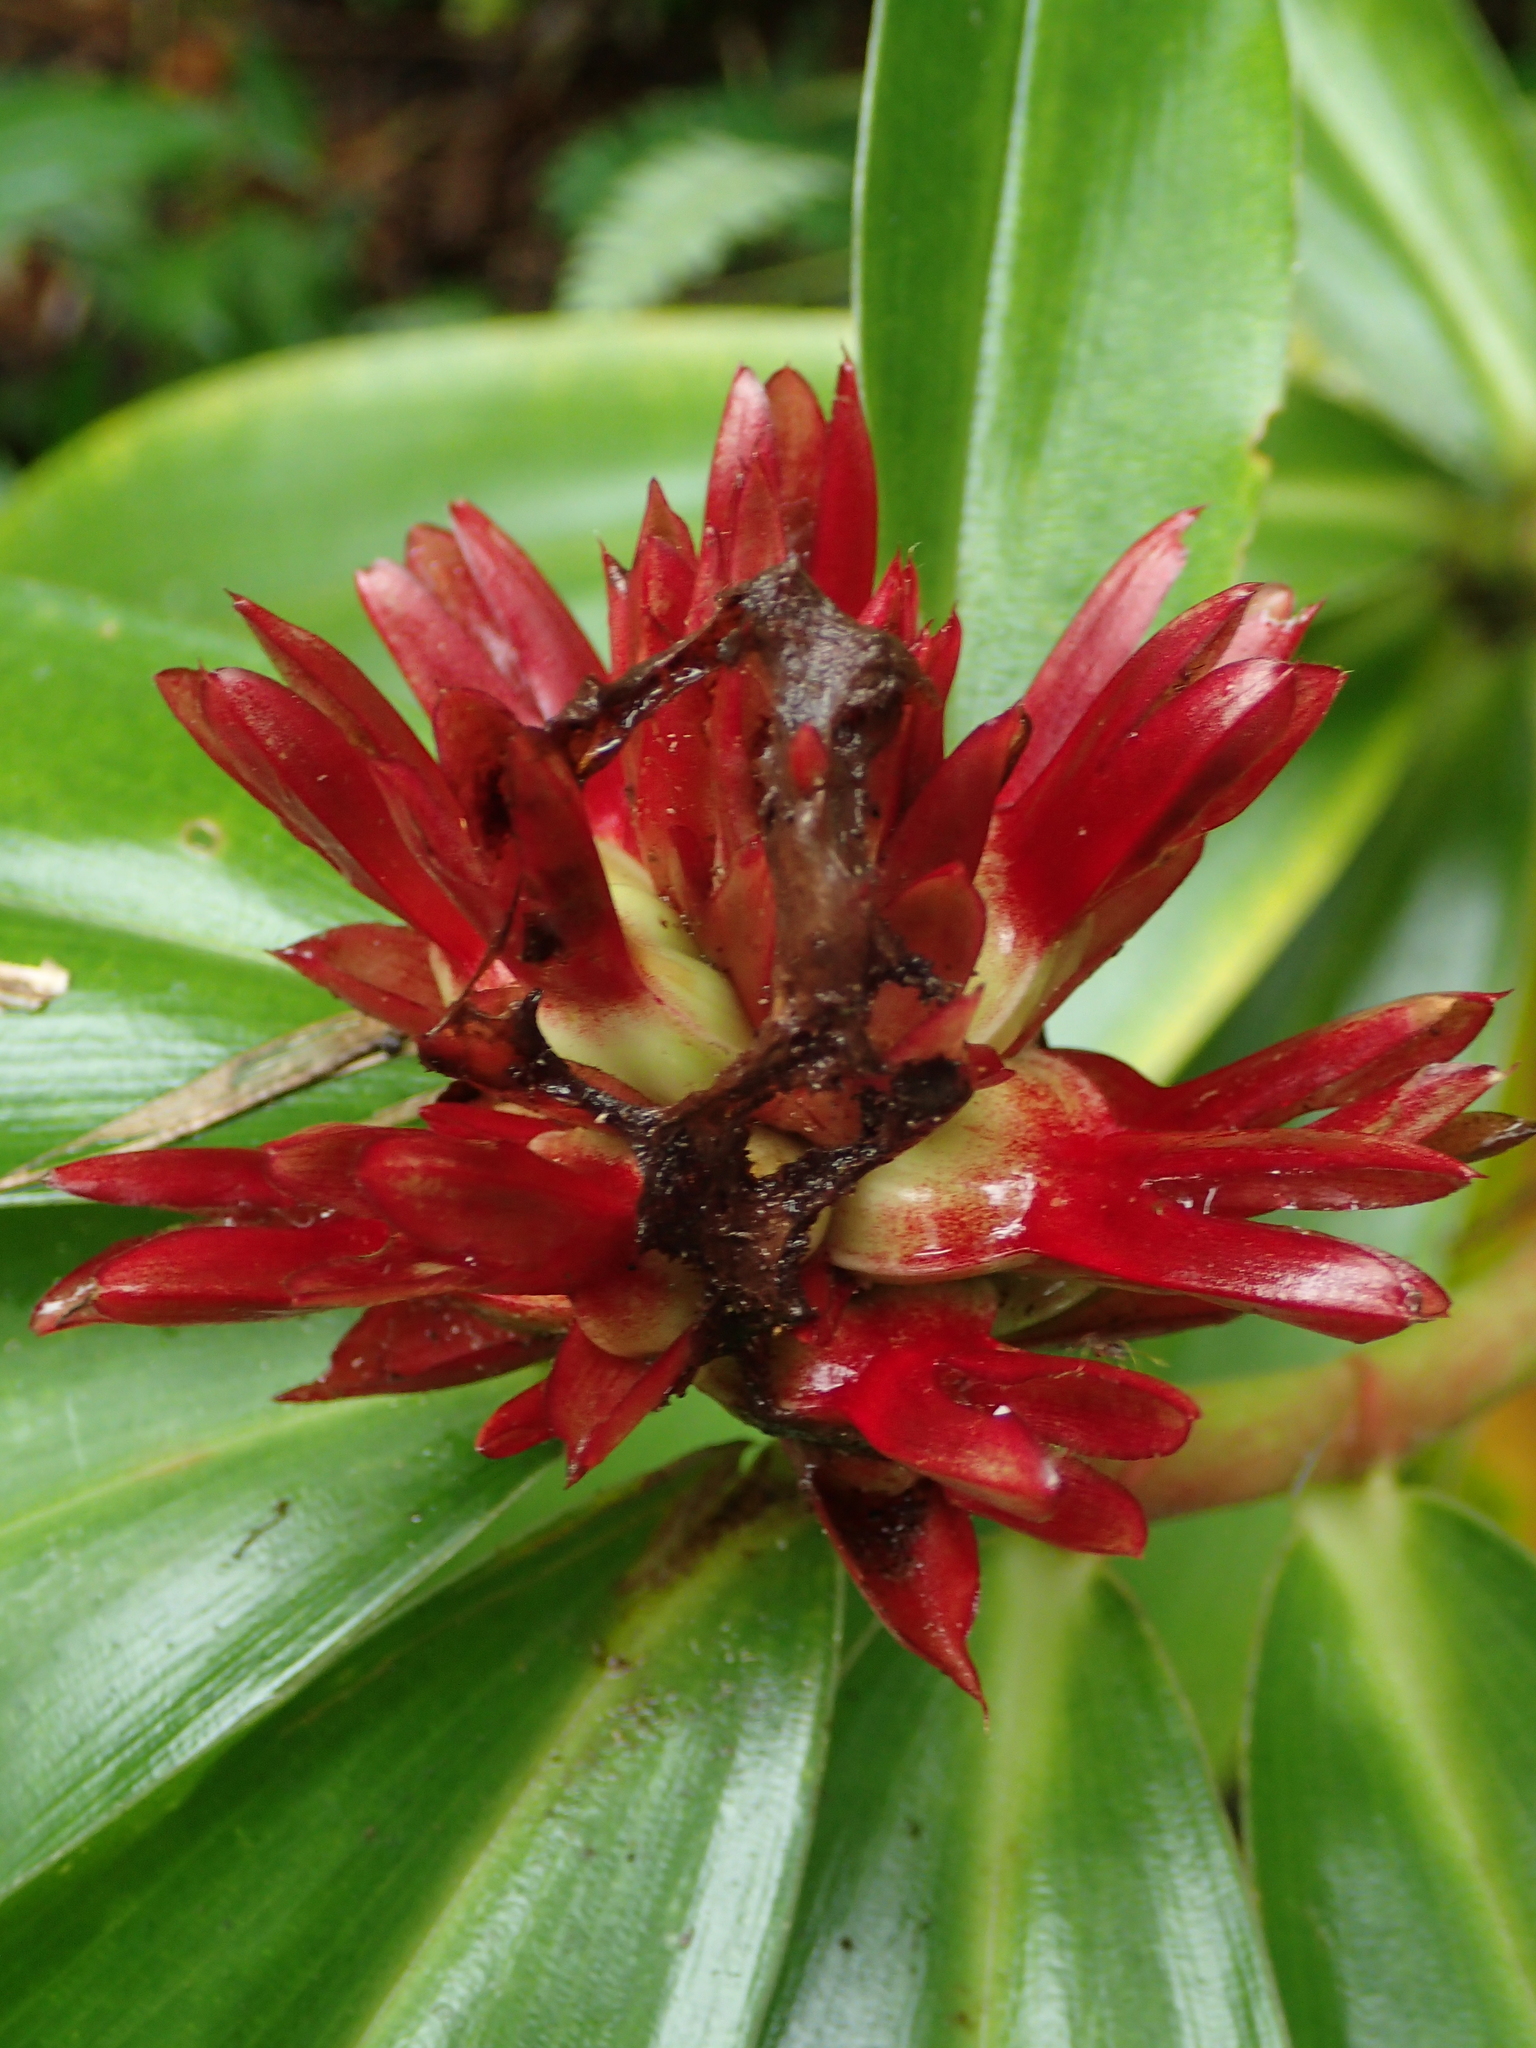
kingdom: Plantae
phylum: Tracheophyta
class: Liliopsida
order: Zingiberales
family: Costaceae
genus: Hellenia
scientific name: Hellenia speciosa
